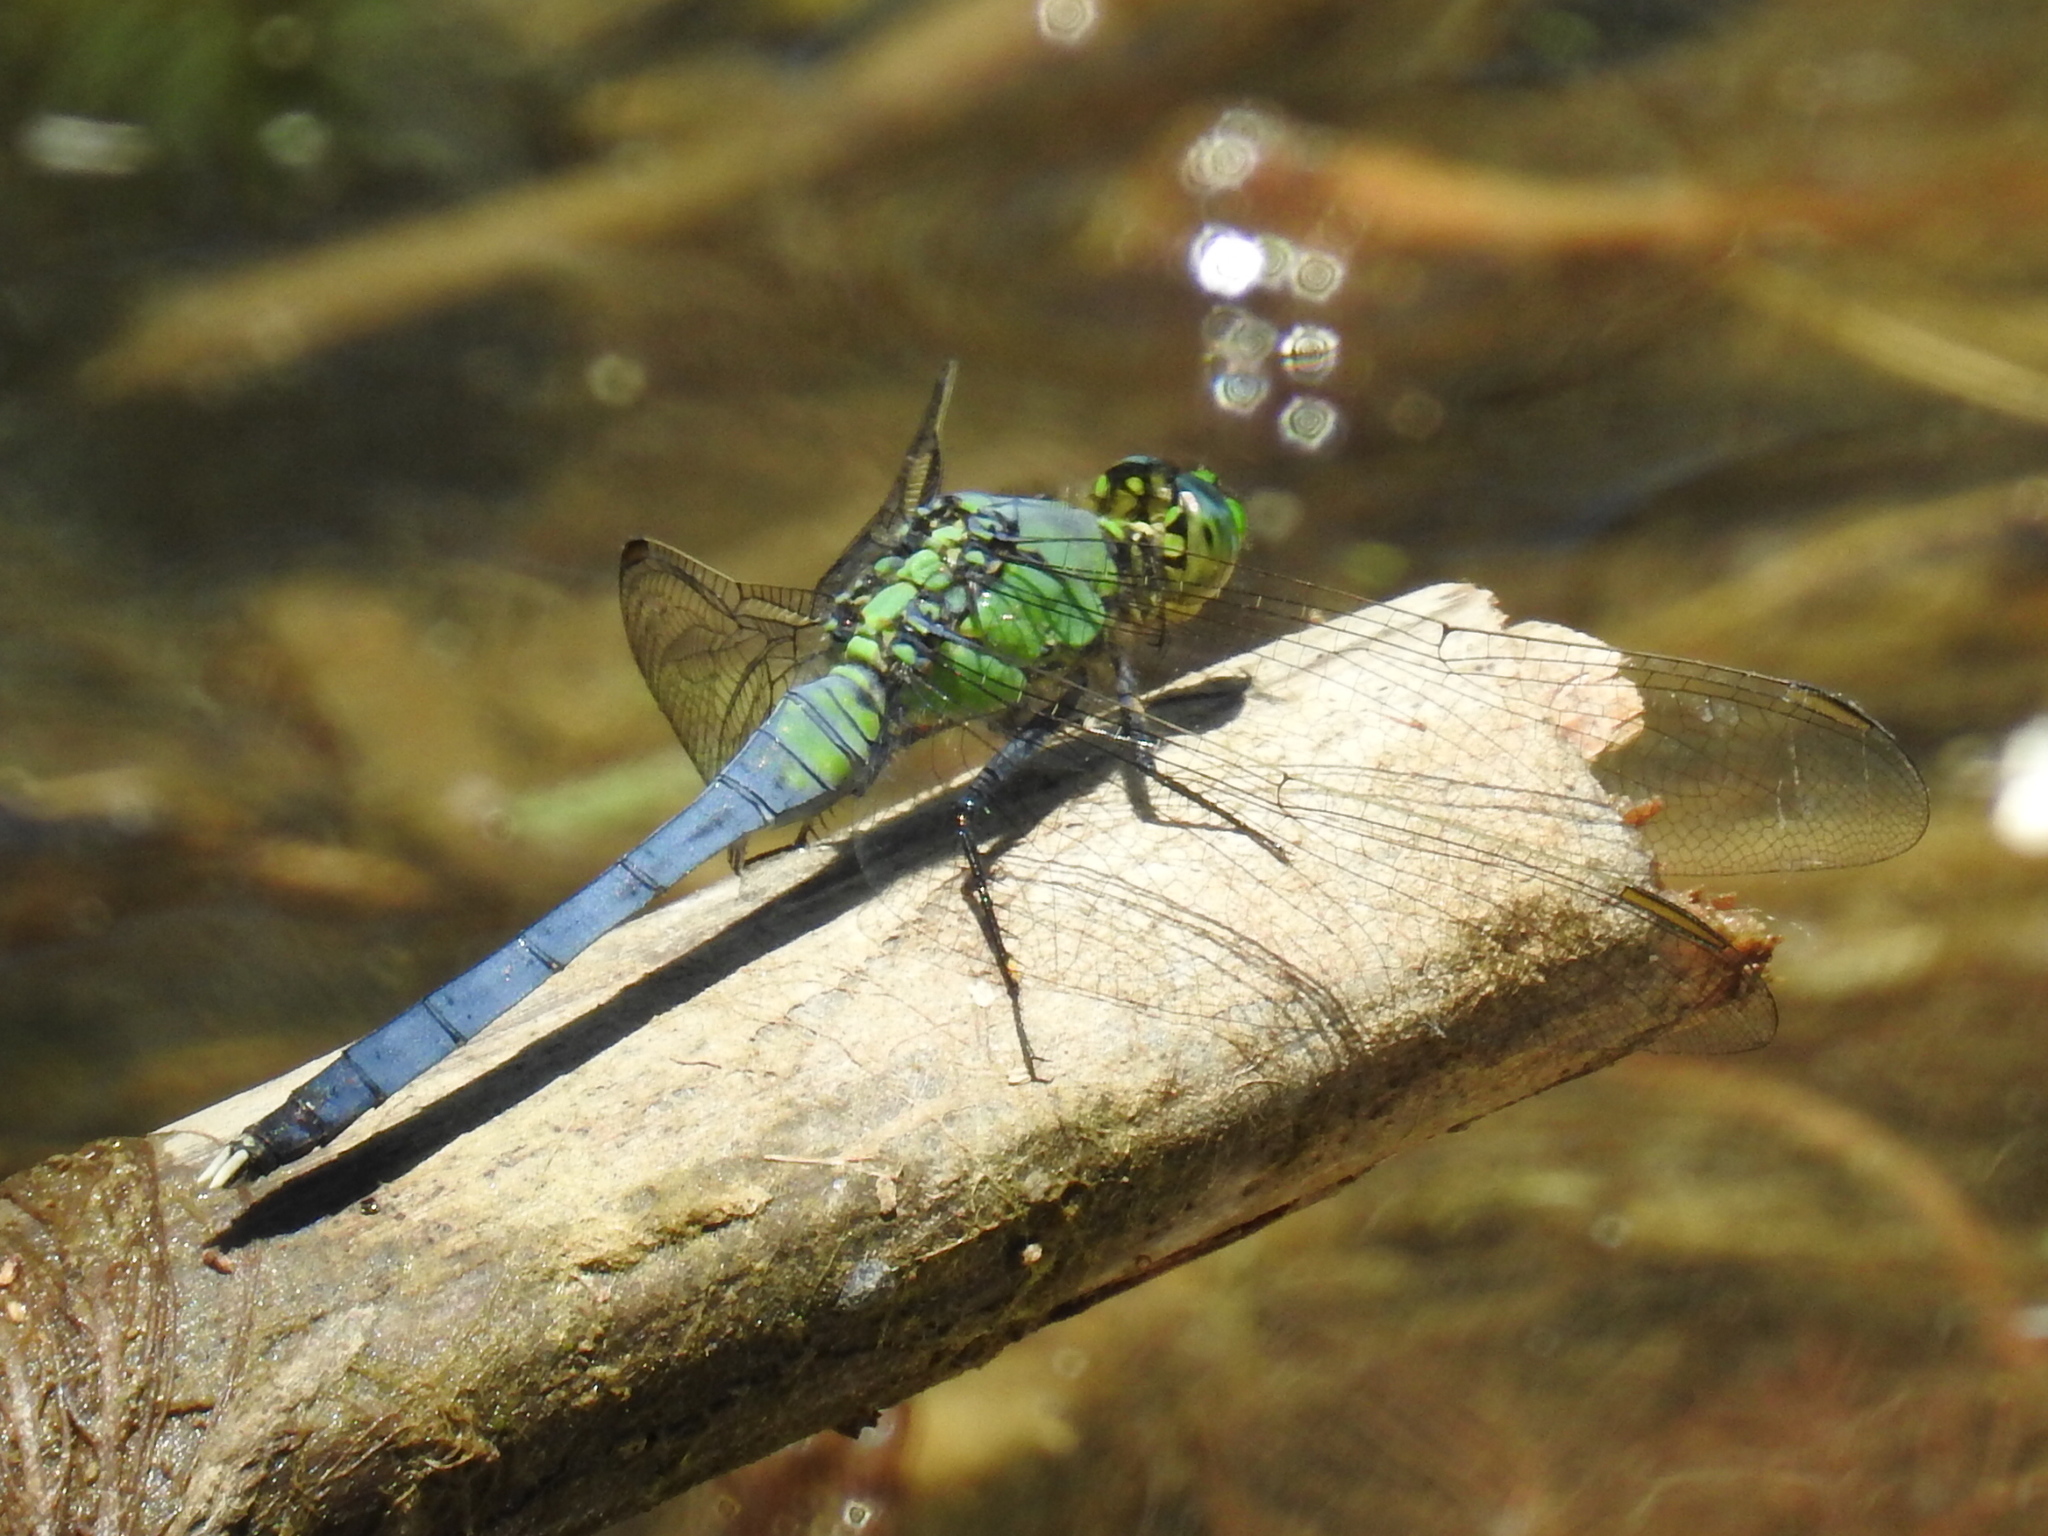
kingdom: Animalia
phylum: Arthropoda
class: Insecta
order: Odonata
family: Libellulidae
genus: Erythemis
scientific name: Erythemis simplicicollis
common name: Eastern pondhawk
